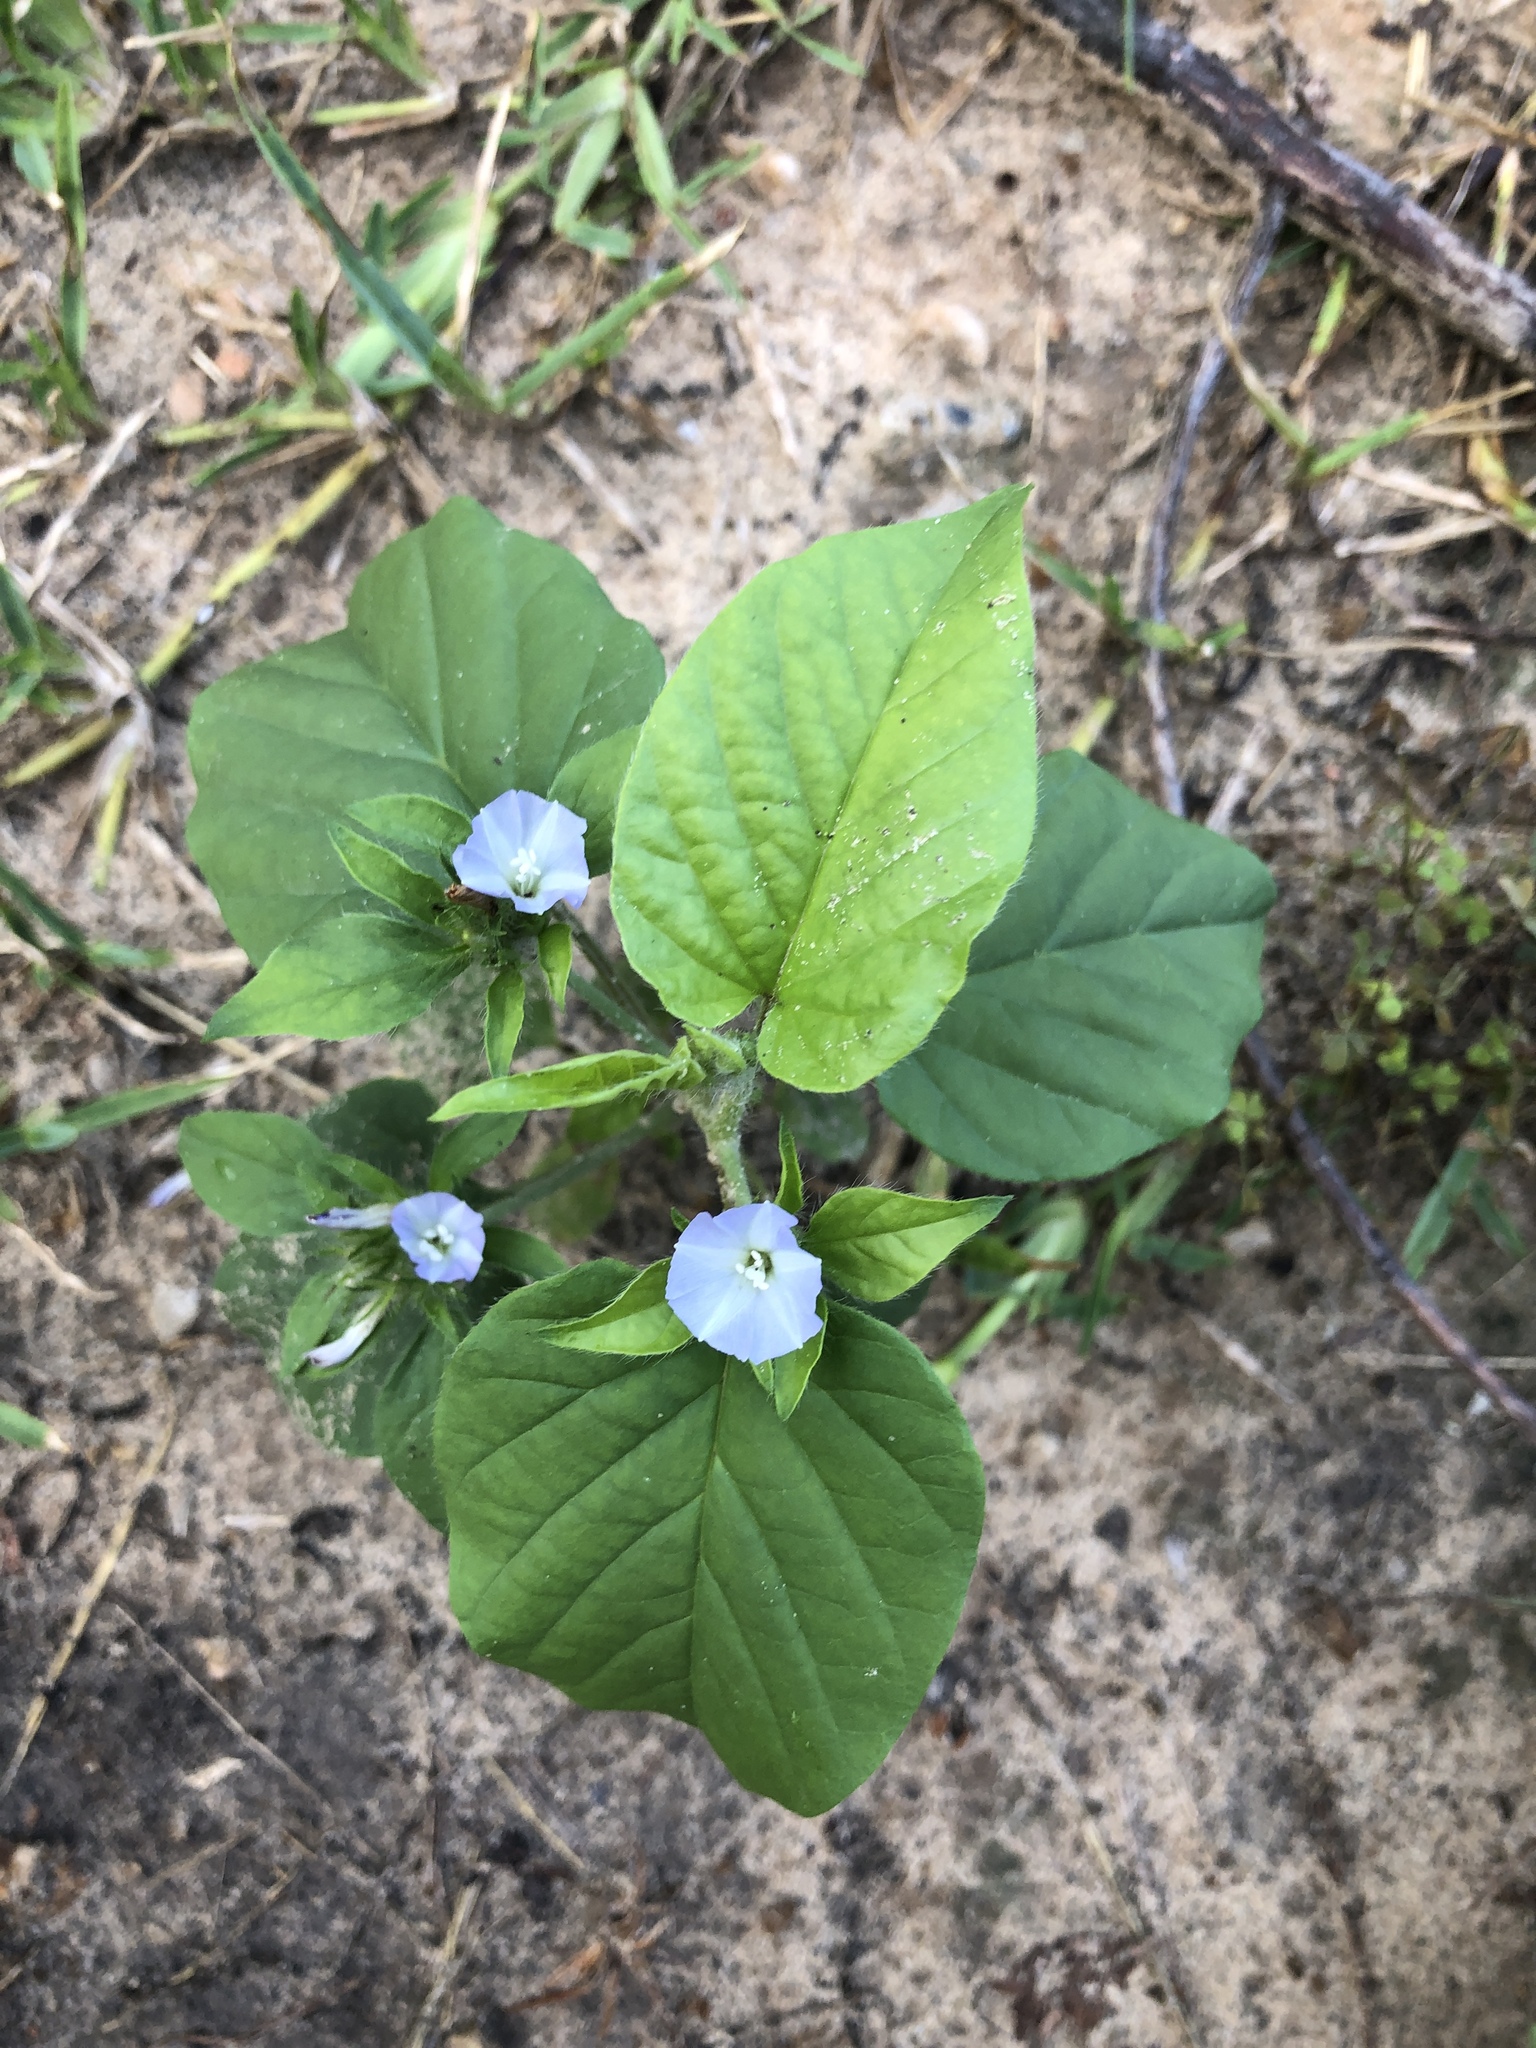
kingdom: Plantae
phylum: Tracheophyta
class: Magnoliopsida
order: Solanales
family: Convolvulaceae
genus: Jacquemontia
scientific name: Jacquemontia tamnifolia
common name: Hairy clustervine
